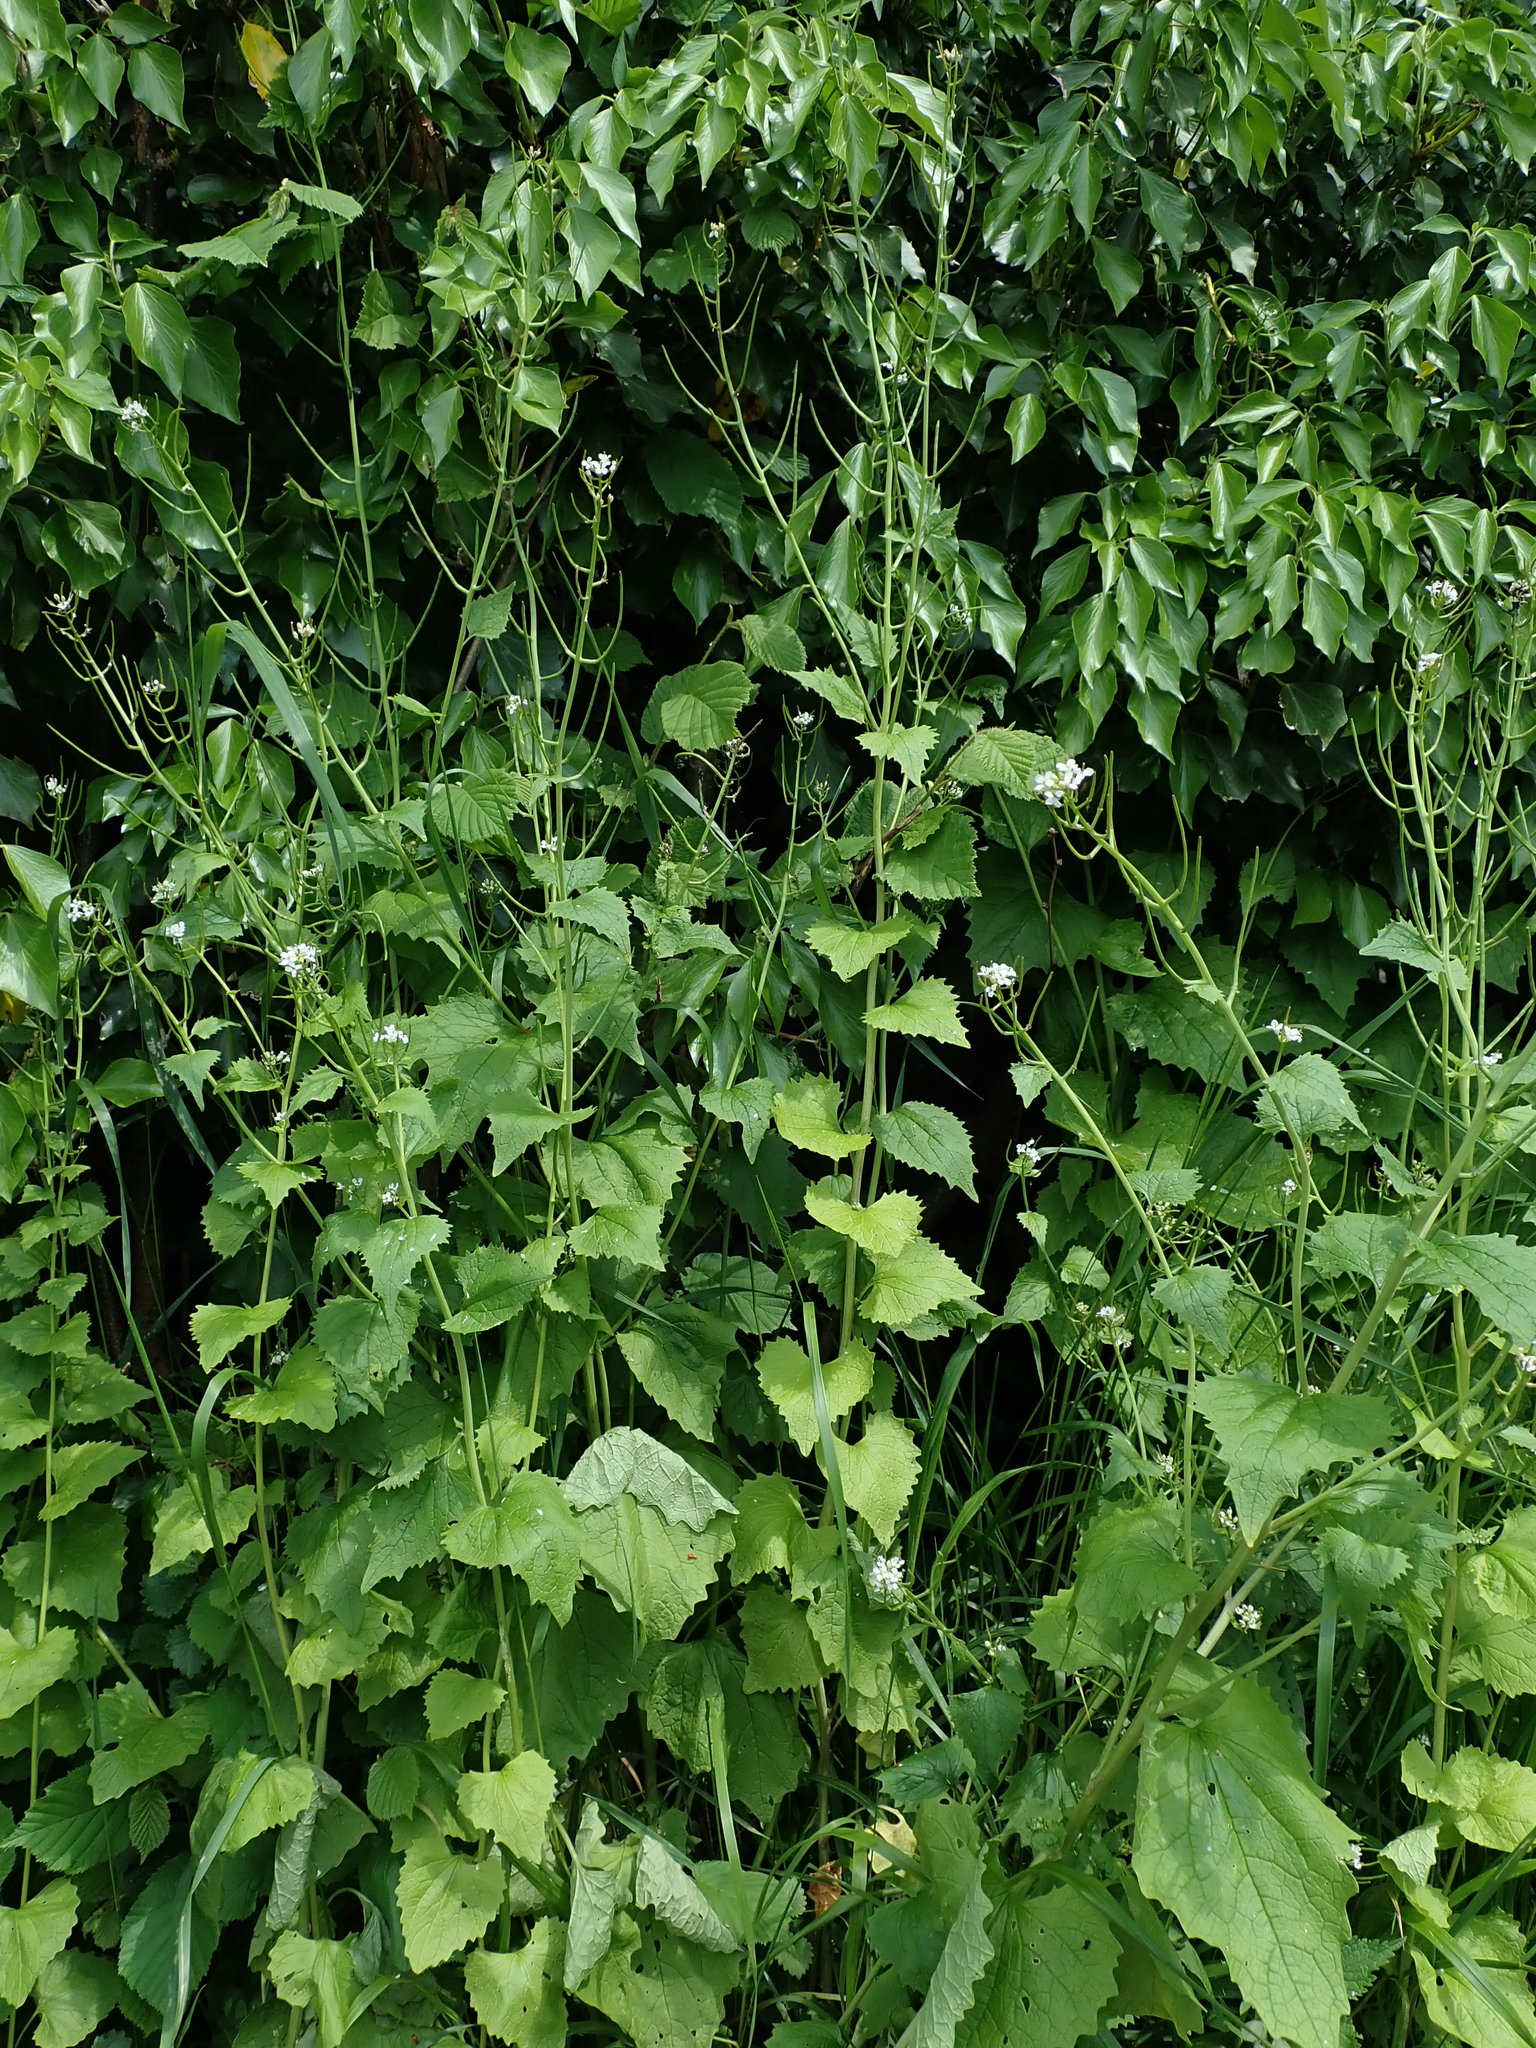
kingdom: Plantae
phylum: Tracheophyta
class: Magnoliopsida
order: Brassicales
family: Brassicaceae
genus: Alliaria
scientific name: Alliaria petiolata
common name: Garlic mustard
